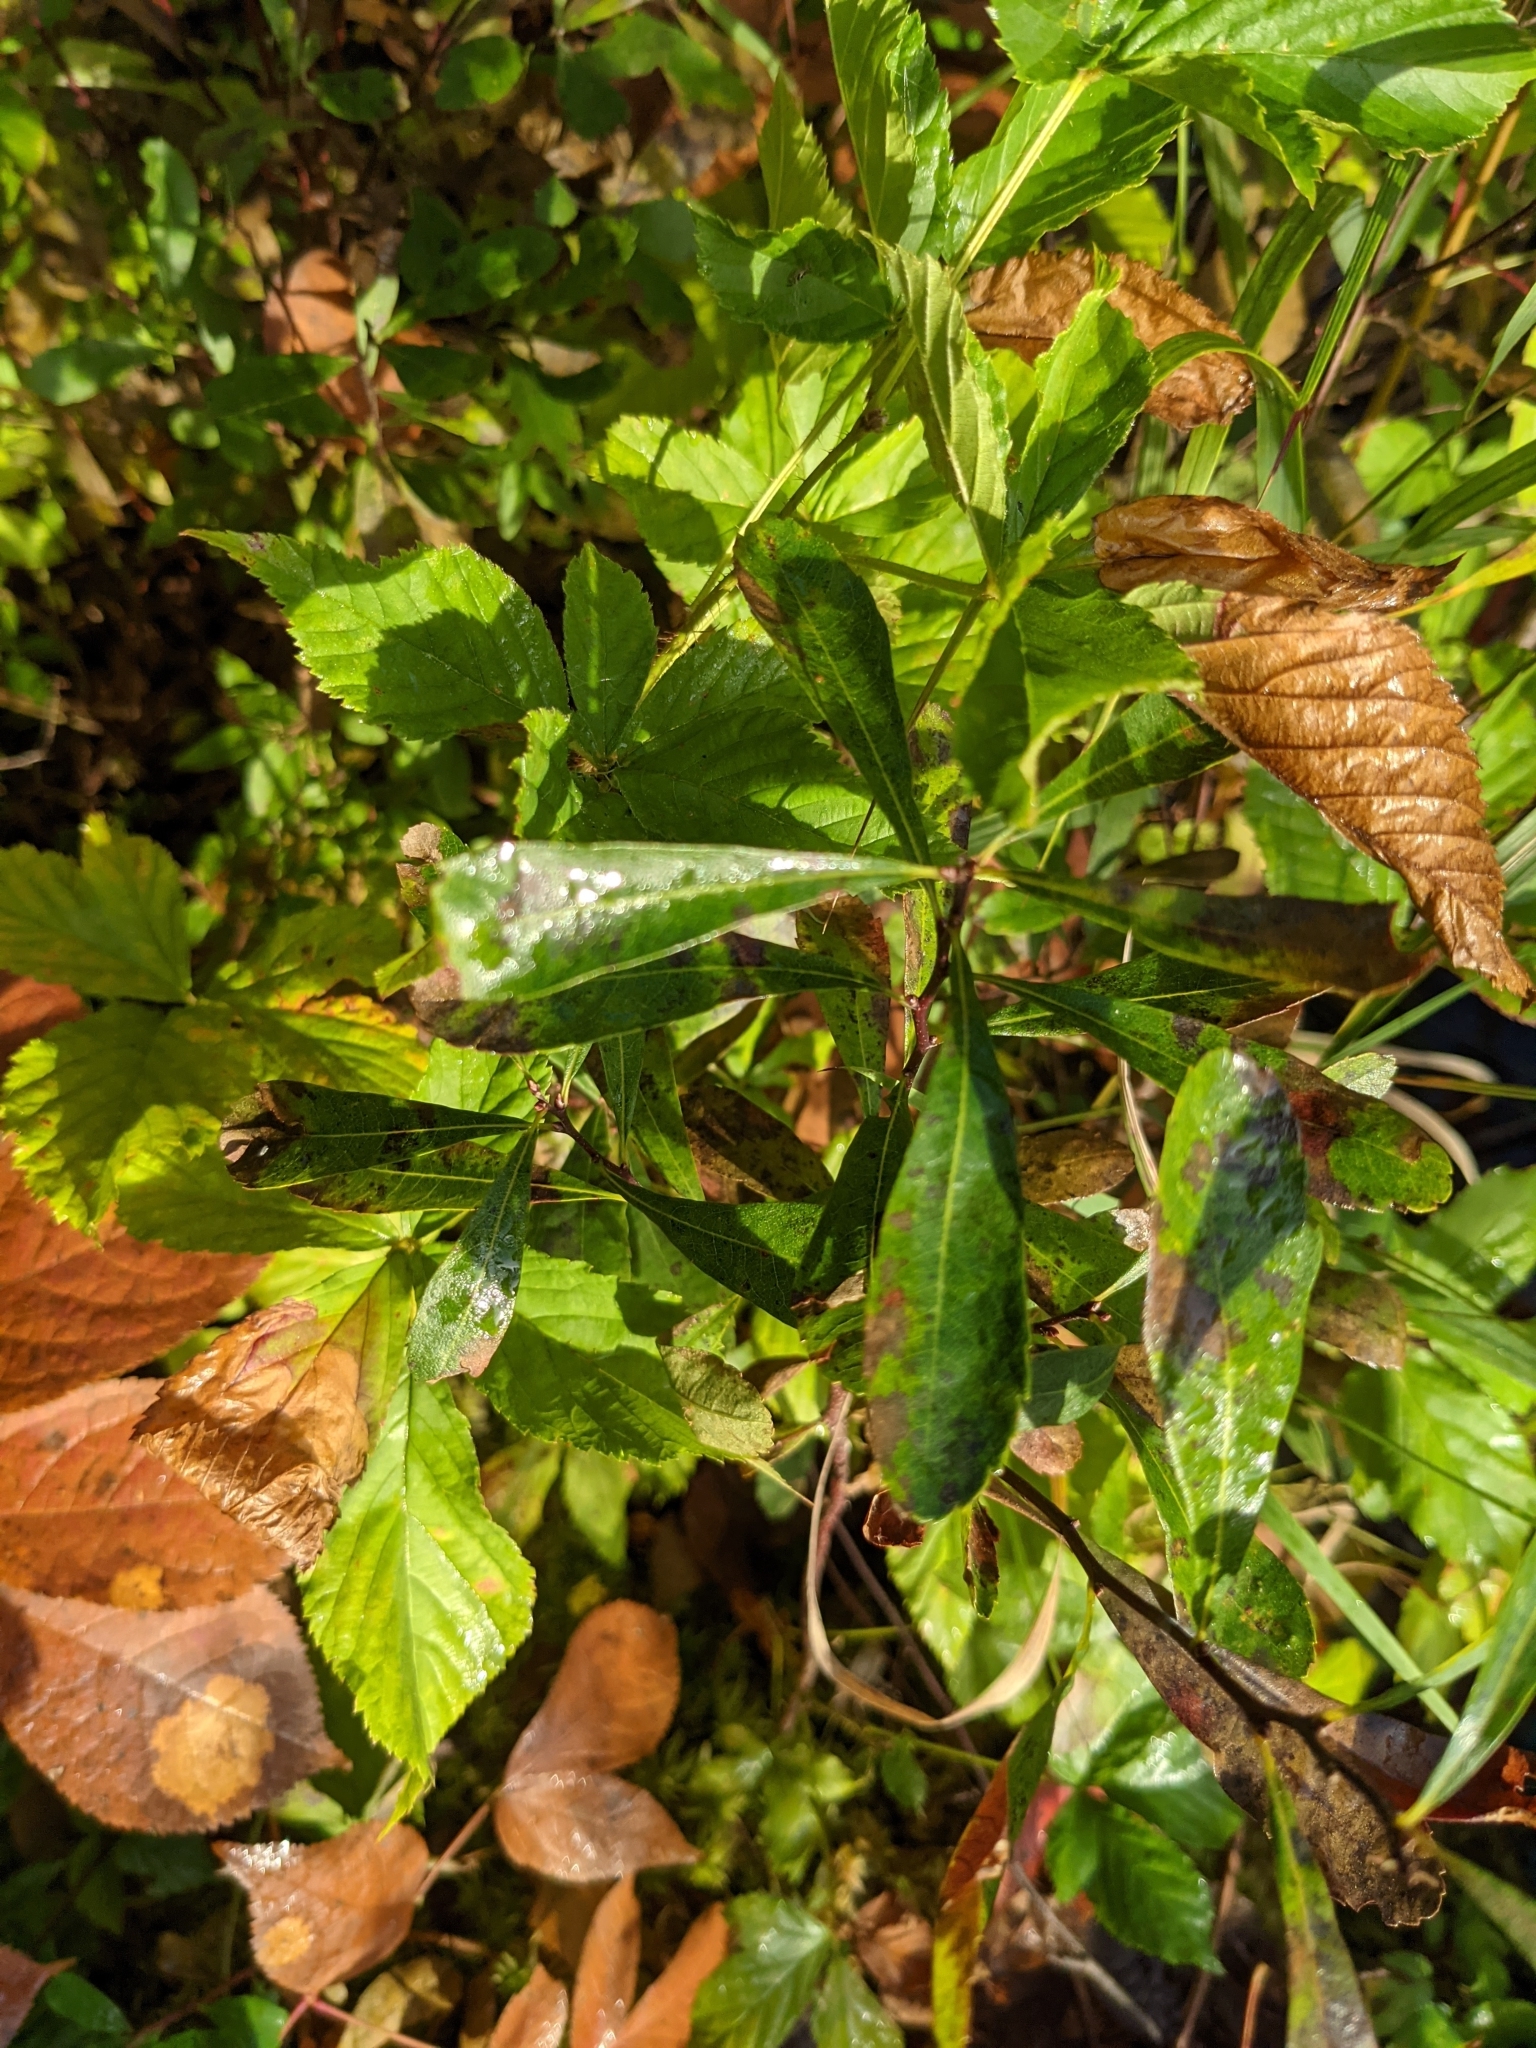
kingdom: Plantae
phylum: Tracheophyta
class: Magnoliopsida
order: Fagales
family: Myricaceae
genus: Myrica
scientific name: Myrica gale
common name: Sweet gale
